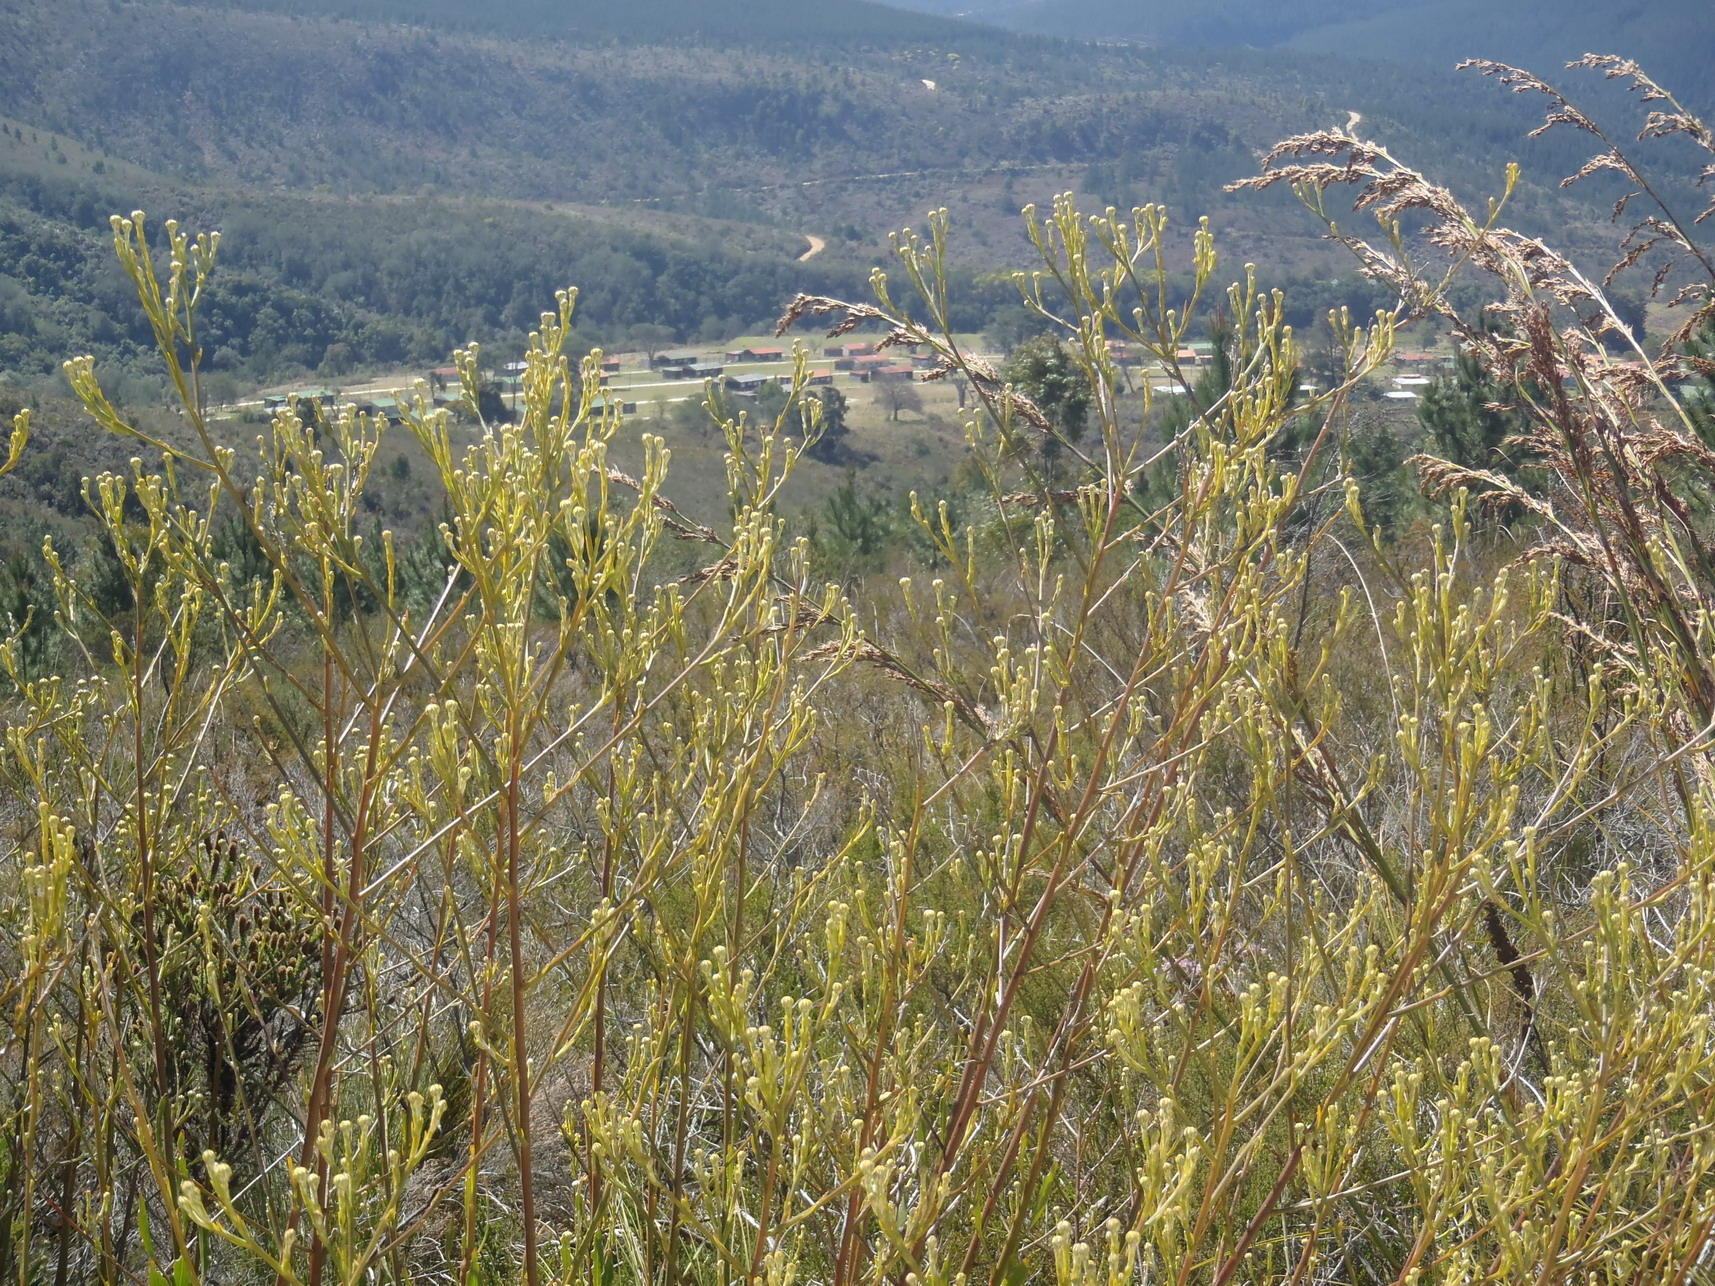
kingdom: Plantae
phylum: Tracheophyta
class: Magnoliopsida
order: Asterales
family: Asteraceae
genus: Osteospermum
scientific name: Osteospermum junceum
